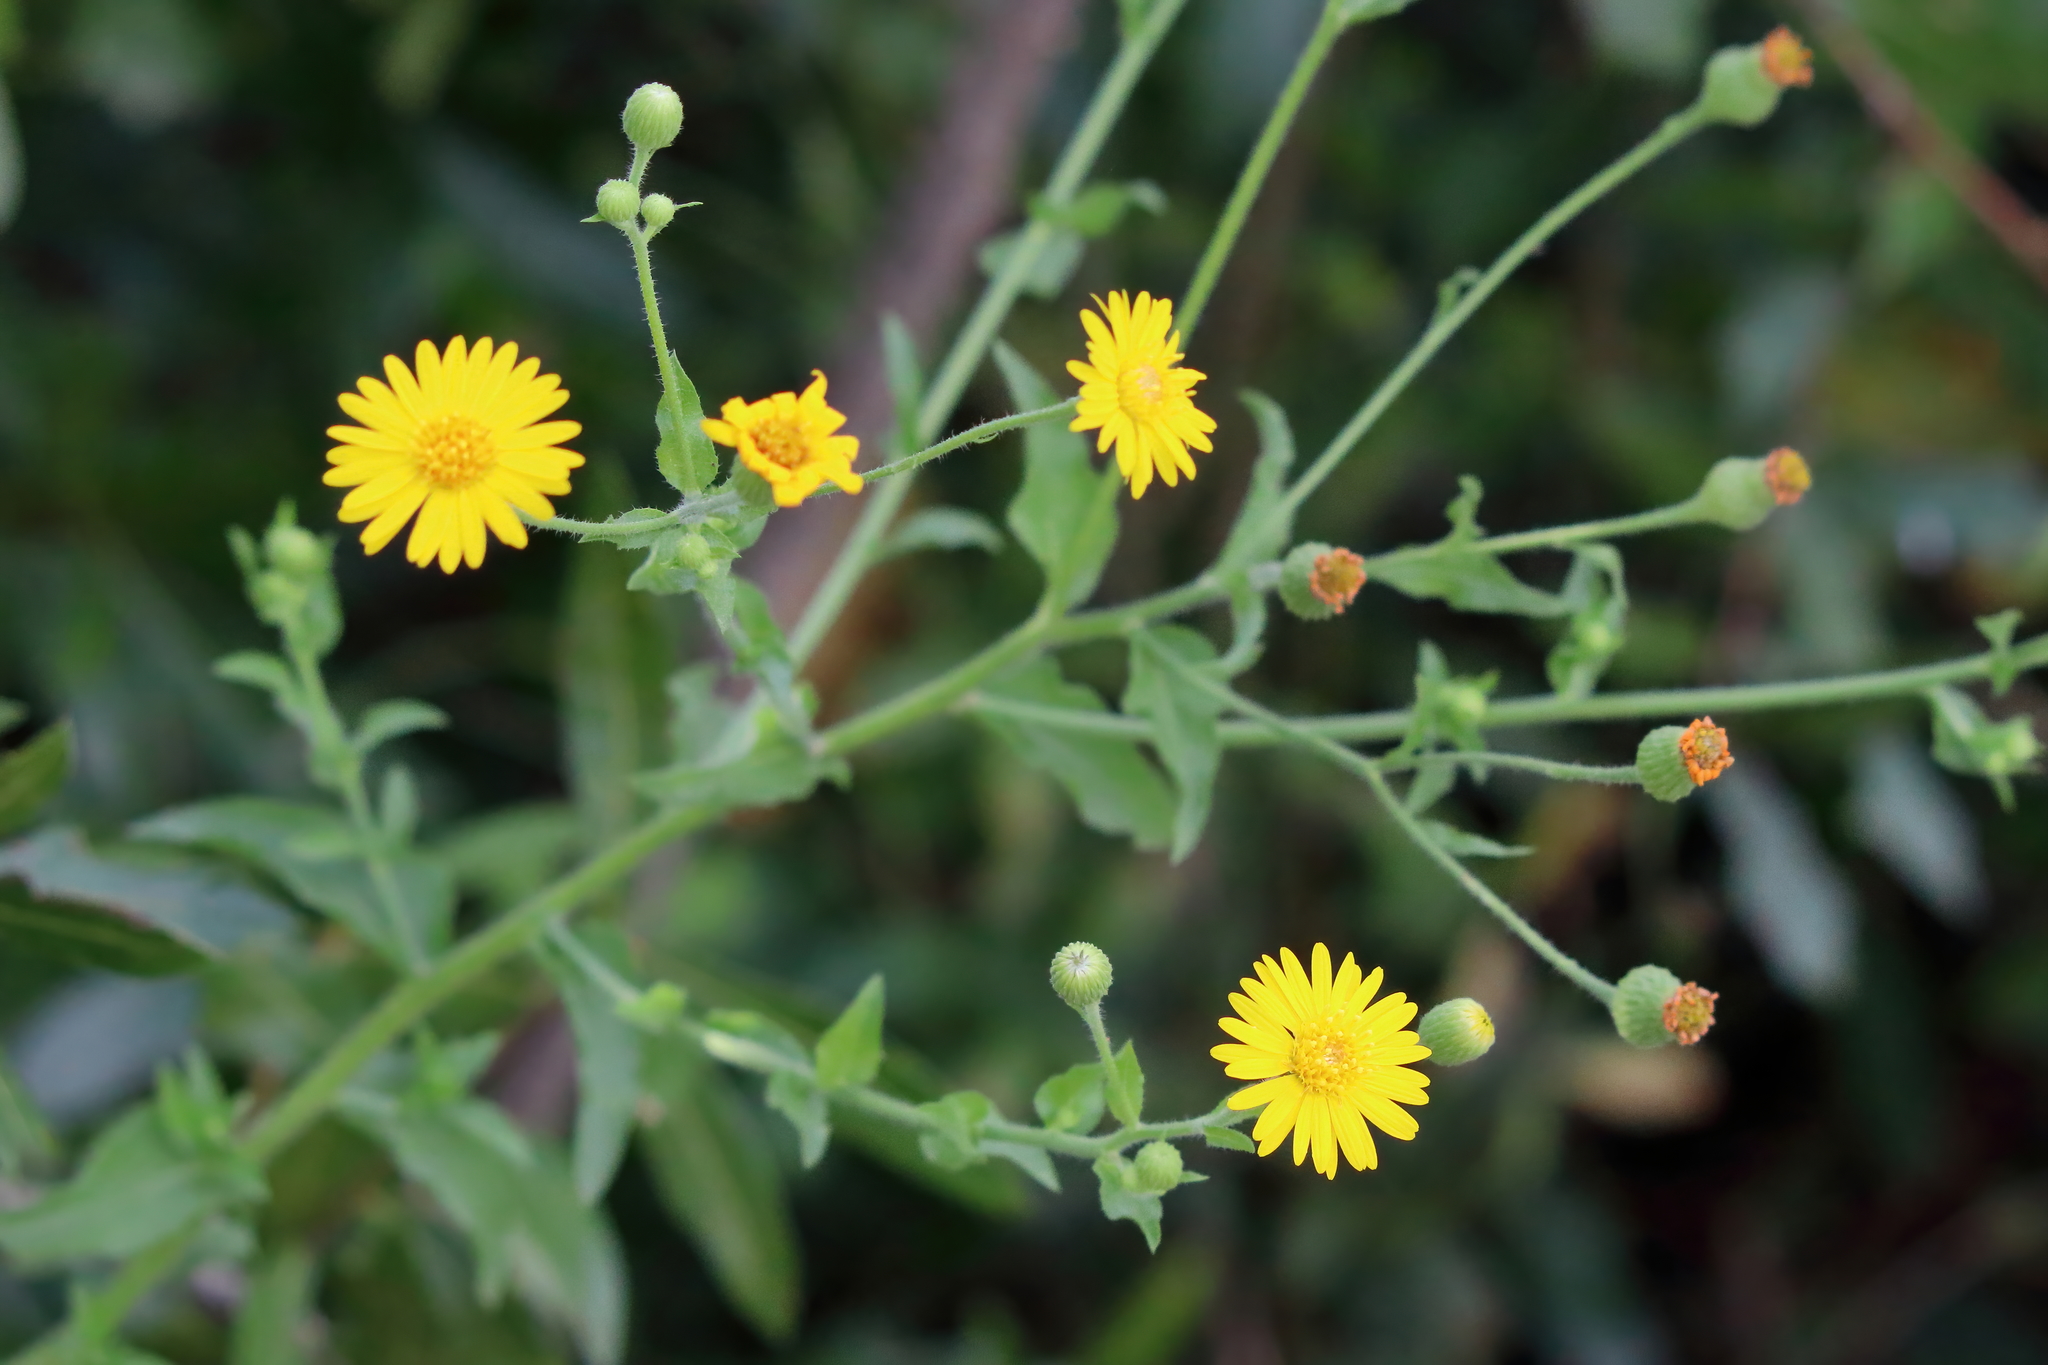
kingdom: Plantae
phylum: Tracheophyta
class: Magnoliopsida
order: Asterales
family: Asteraceae
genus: Heterotheca
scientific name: Heterotheca subaxillaris
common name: Camphorweed
